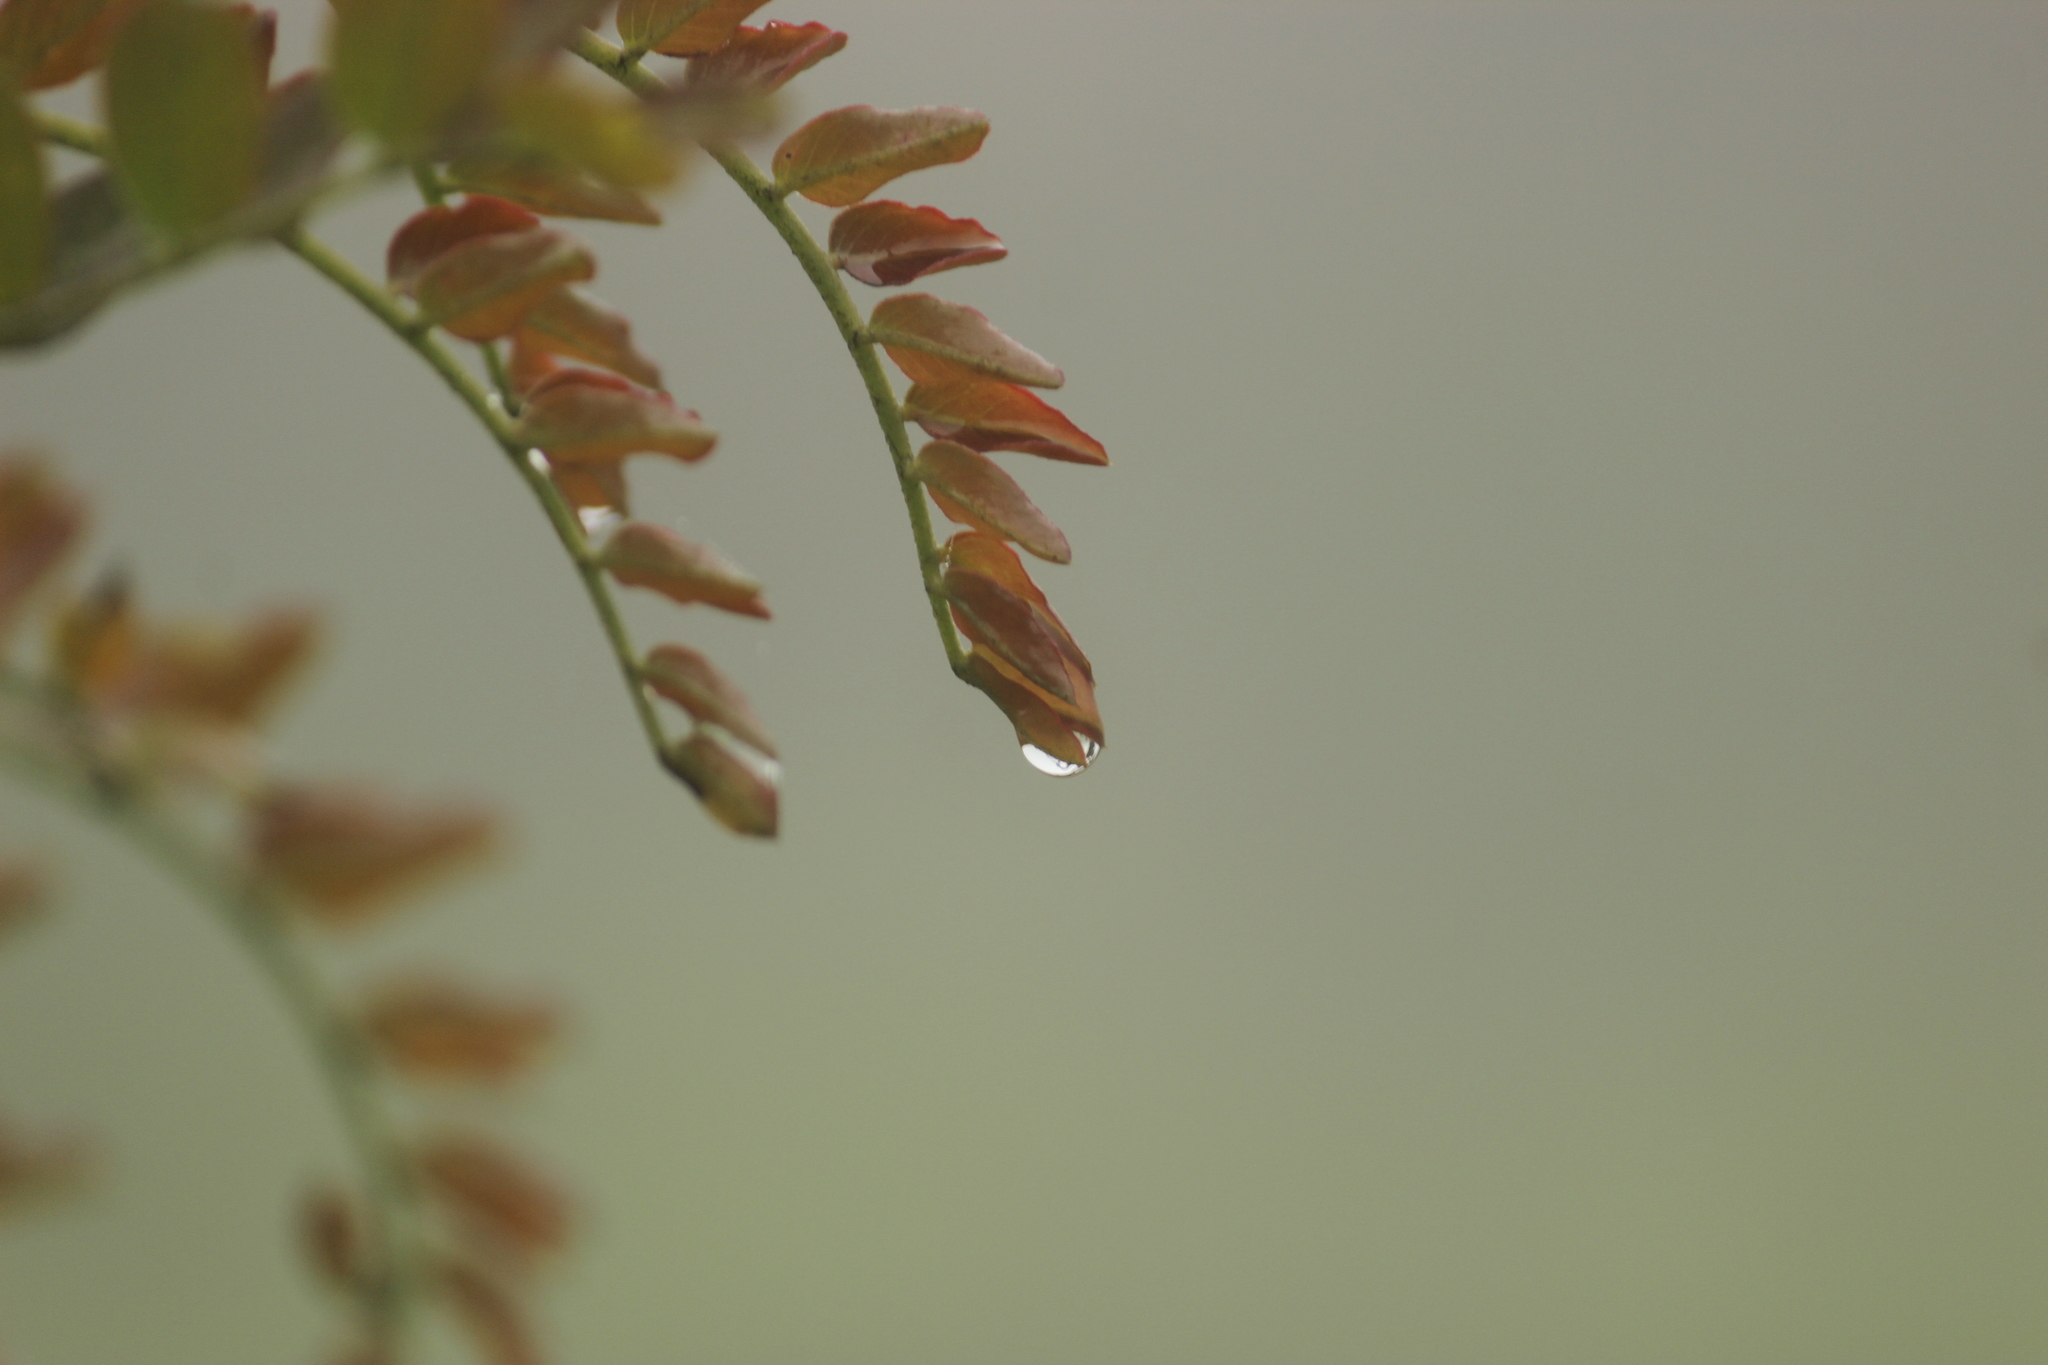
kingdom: Plantae
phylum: Tracheophyta
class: Magnoliopsida
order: Fabales
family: Fabaceae
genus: Tara
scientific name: Tara spinosa
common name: Spiny holdback
